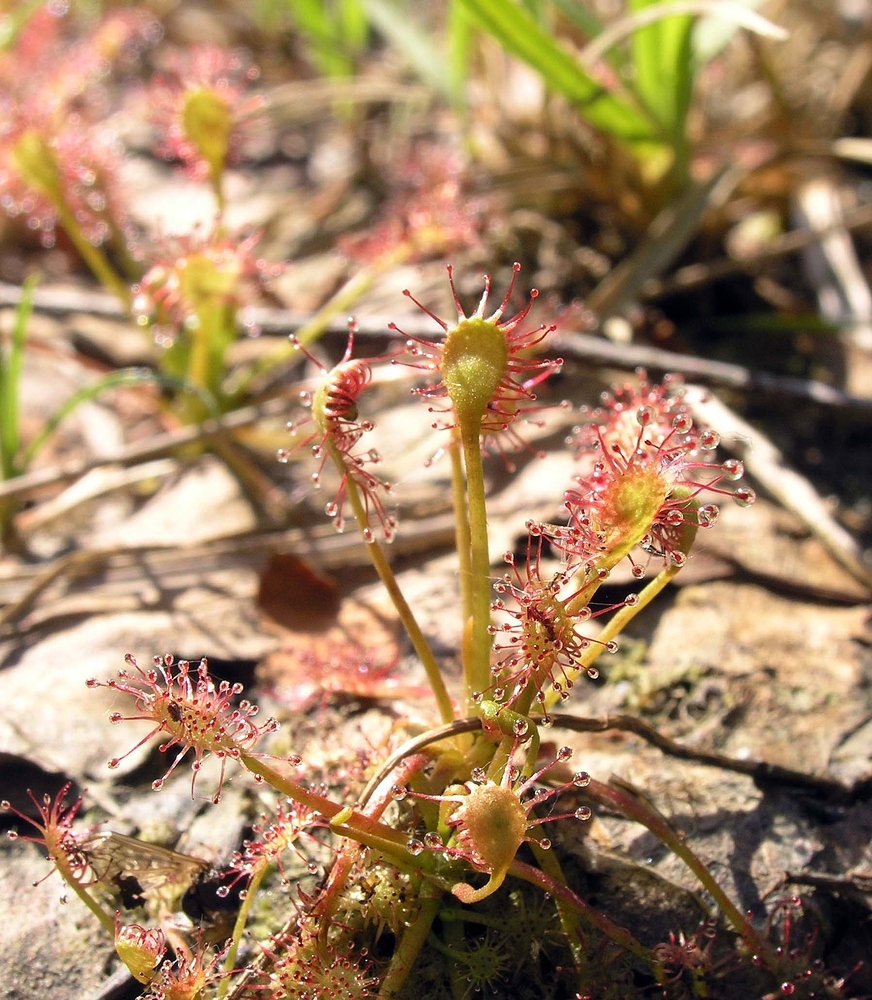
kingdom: Plantae
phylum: Tracheophyta
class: Magnoliopsida
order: Caryophyllales
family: Droseraceae
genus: Drosera
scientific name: Drosera intermedia
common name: Oblong-leaved sundew
